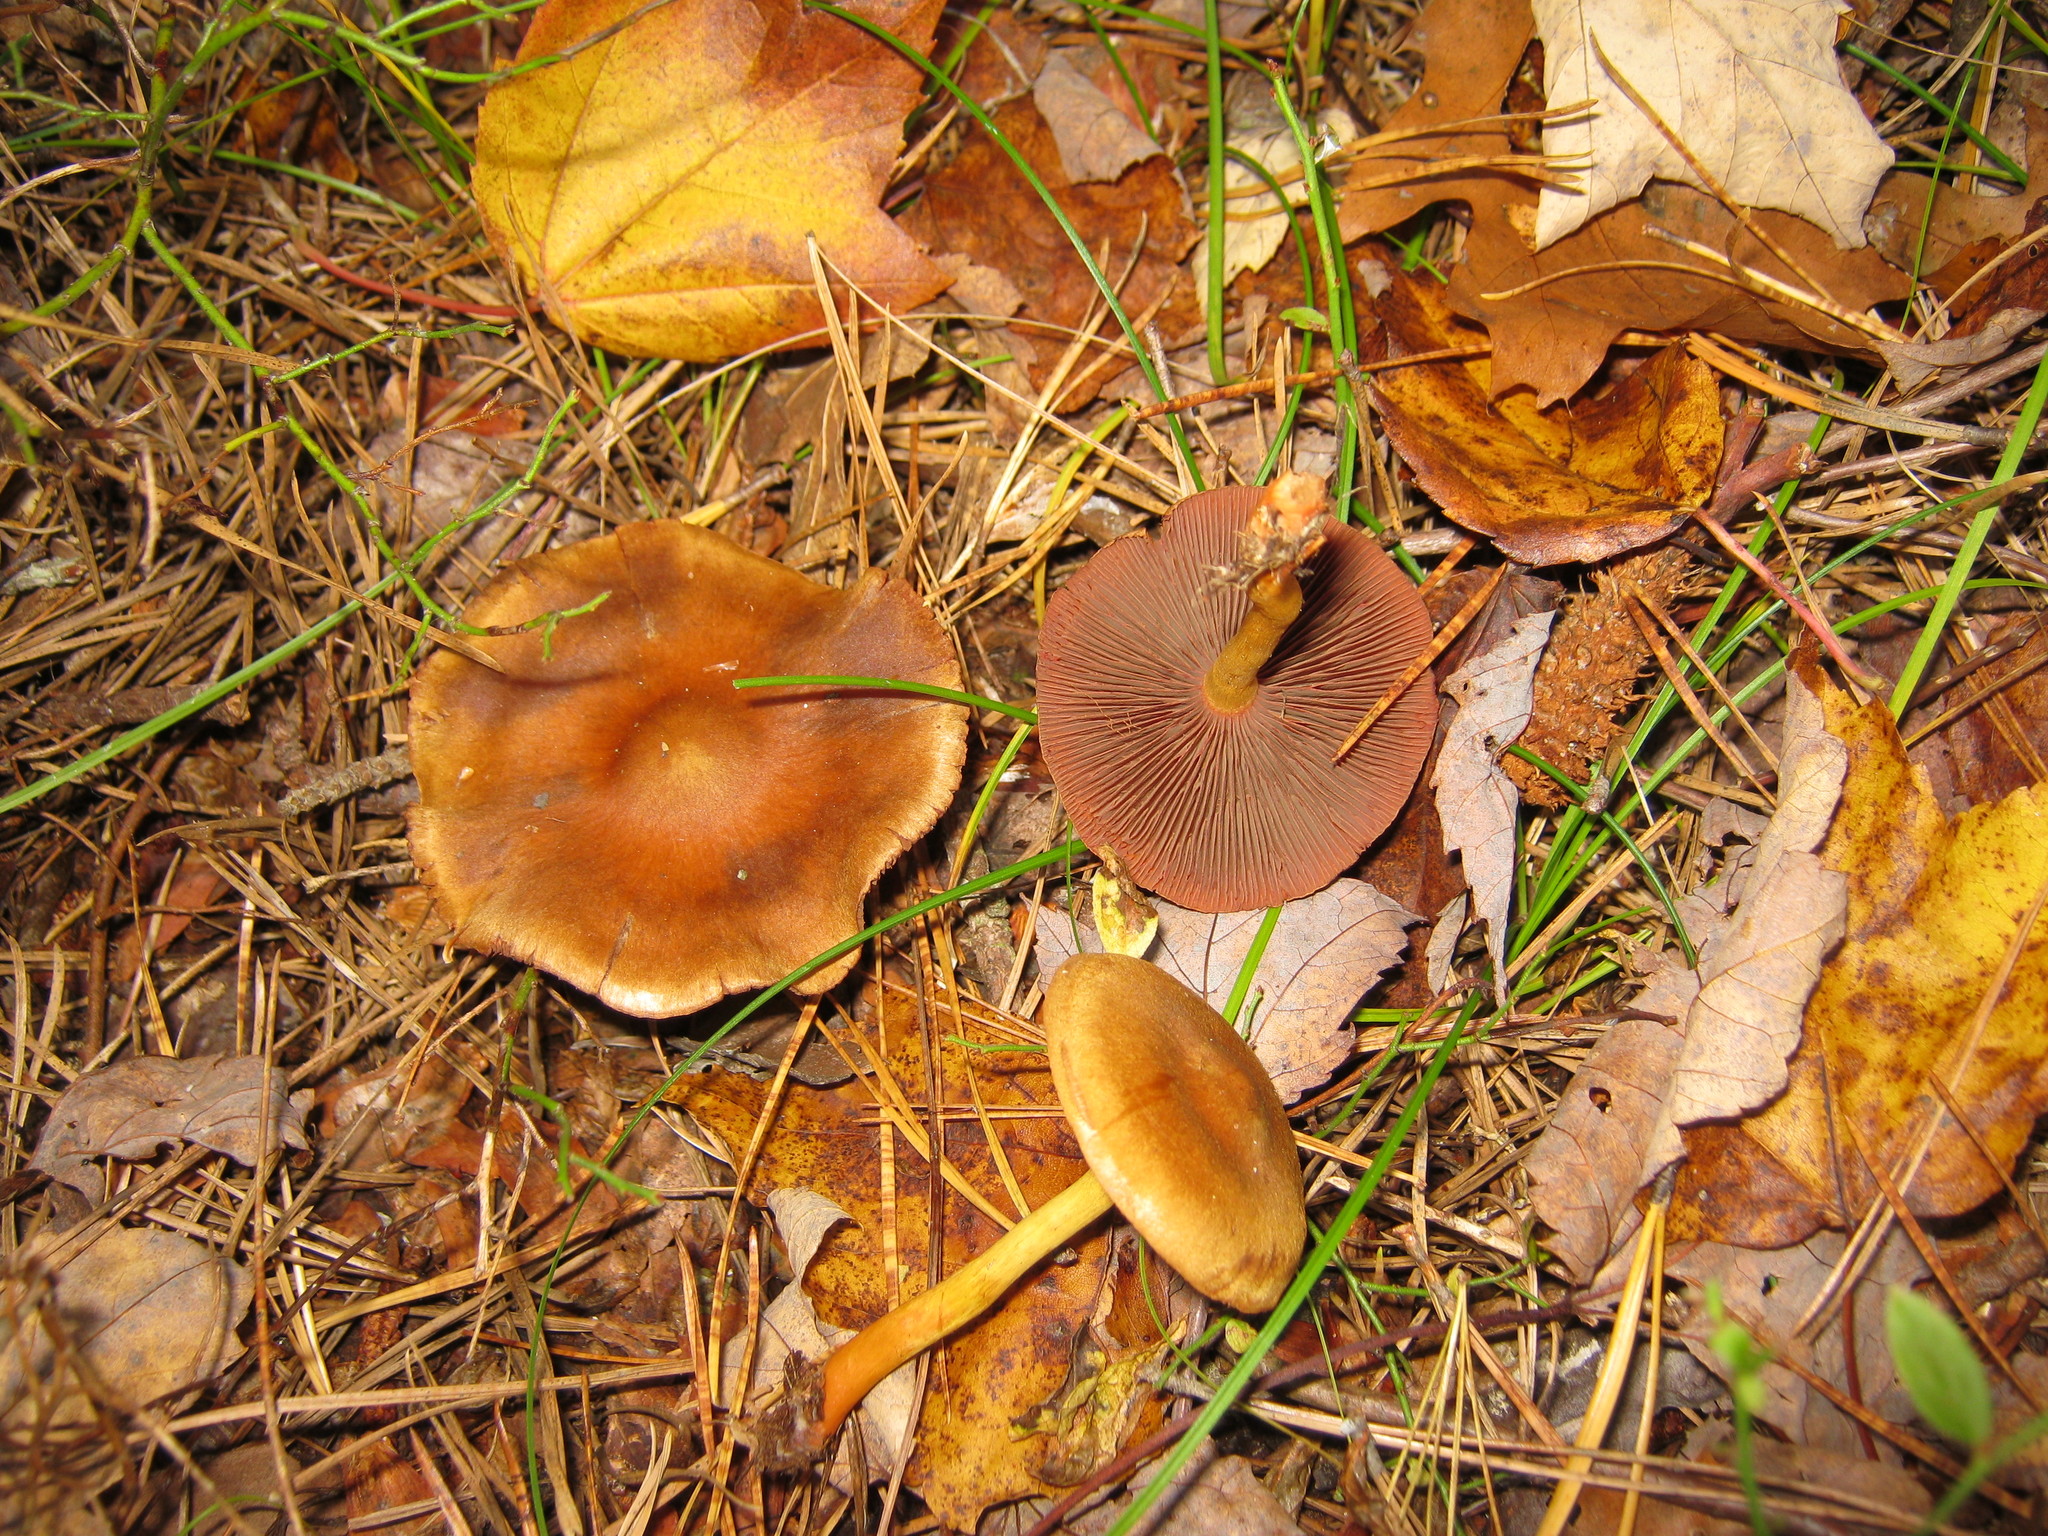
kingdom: Fungi
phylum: Basidiomycota
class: Agaricomycetes
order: Agaricales
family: Cortinariaceae
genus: Cortinarius
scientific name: Cortinarius semisanguineus
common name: Surprise webcap
